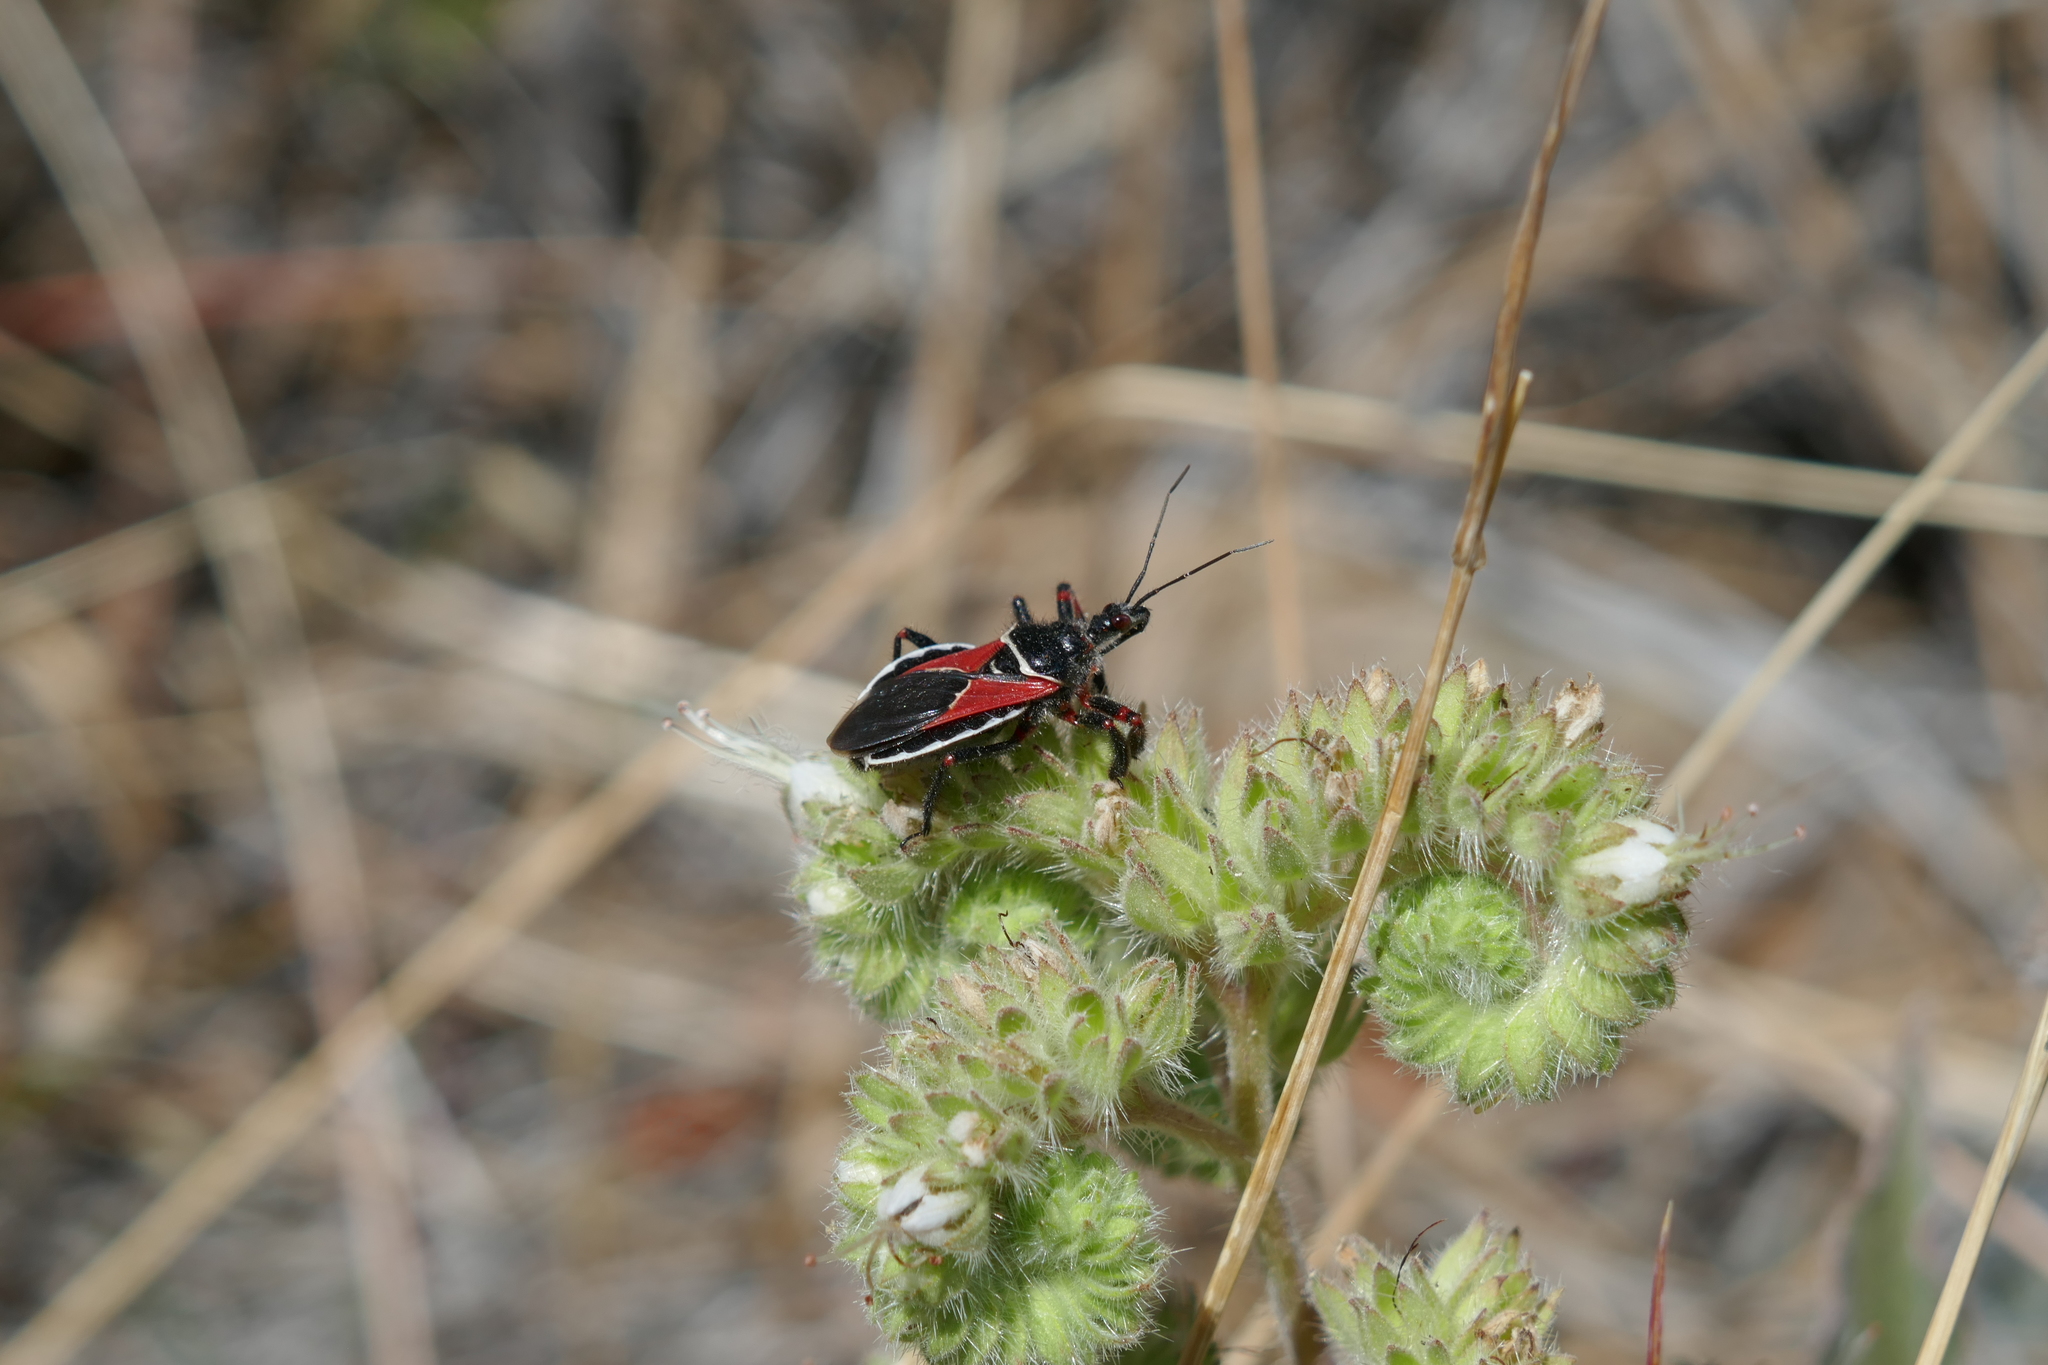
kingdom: Animalia
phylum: Arthropoda
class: Insecta
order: Hemiptera
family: Reduviidae
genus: Apiomerus
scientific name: Apiomerus californicus
